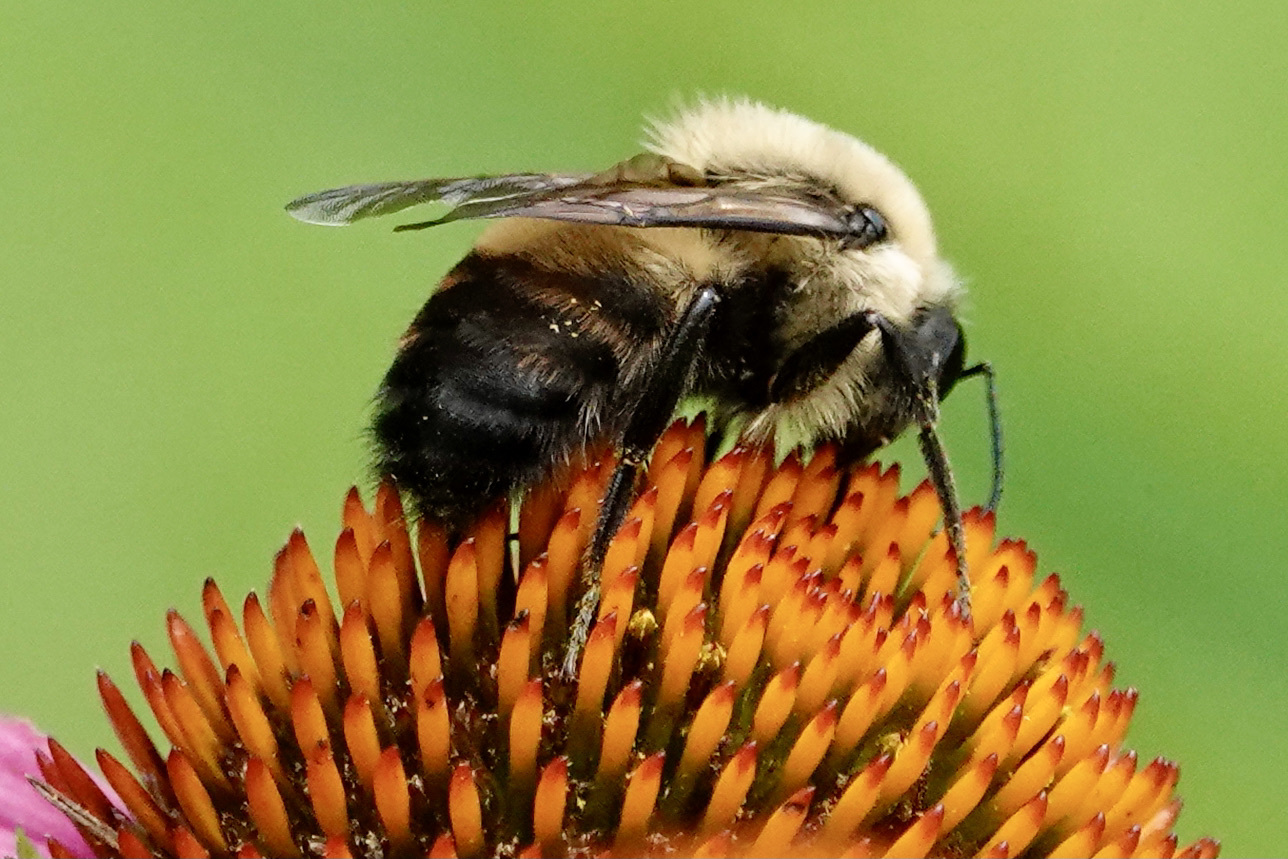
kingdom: Animalia
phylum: Arthropoda
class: Insecta
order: Hymenoptera
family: Apidae
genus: Bombus
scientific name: Bombus griseocollis
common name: Brown-belted bumble bee
